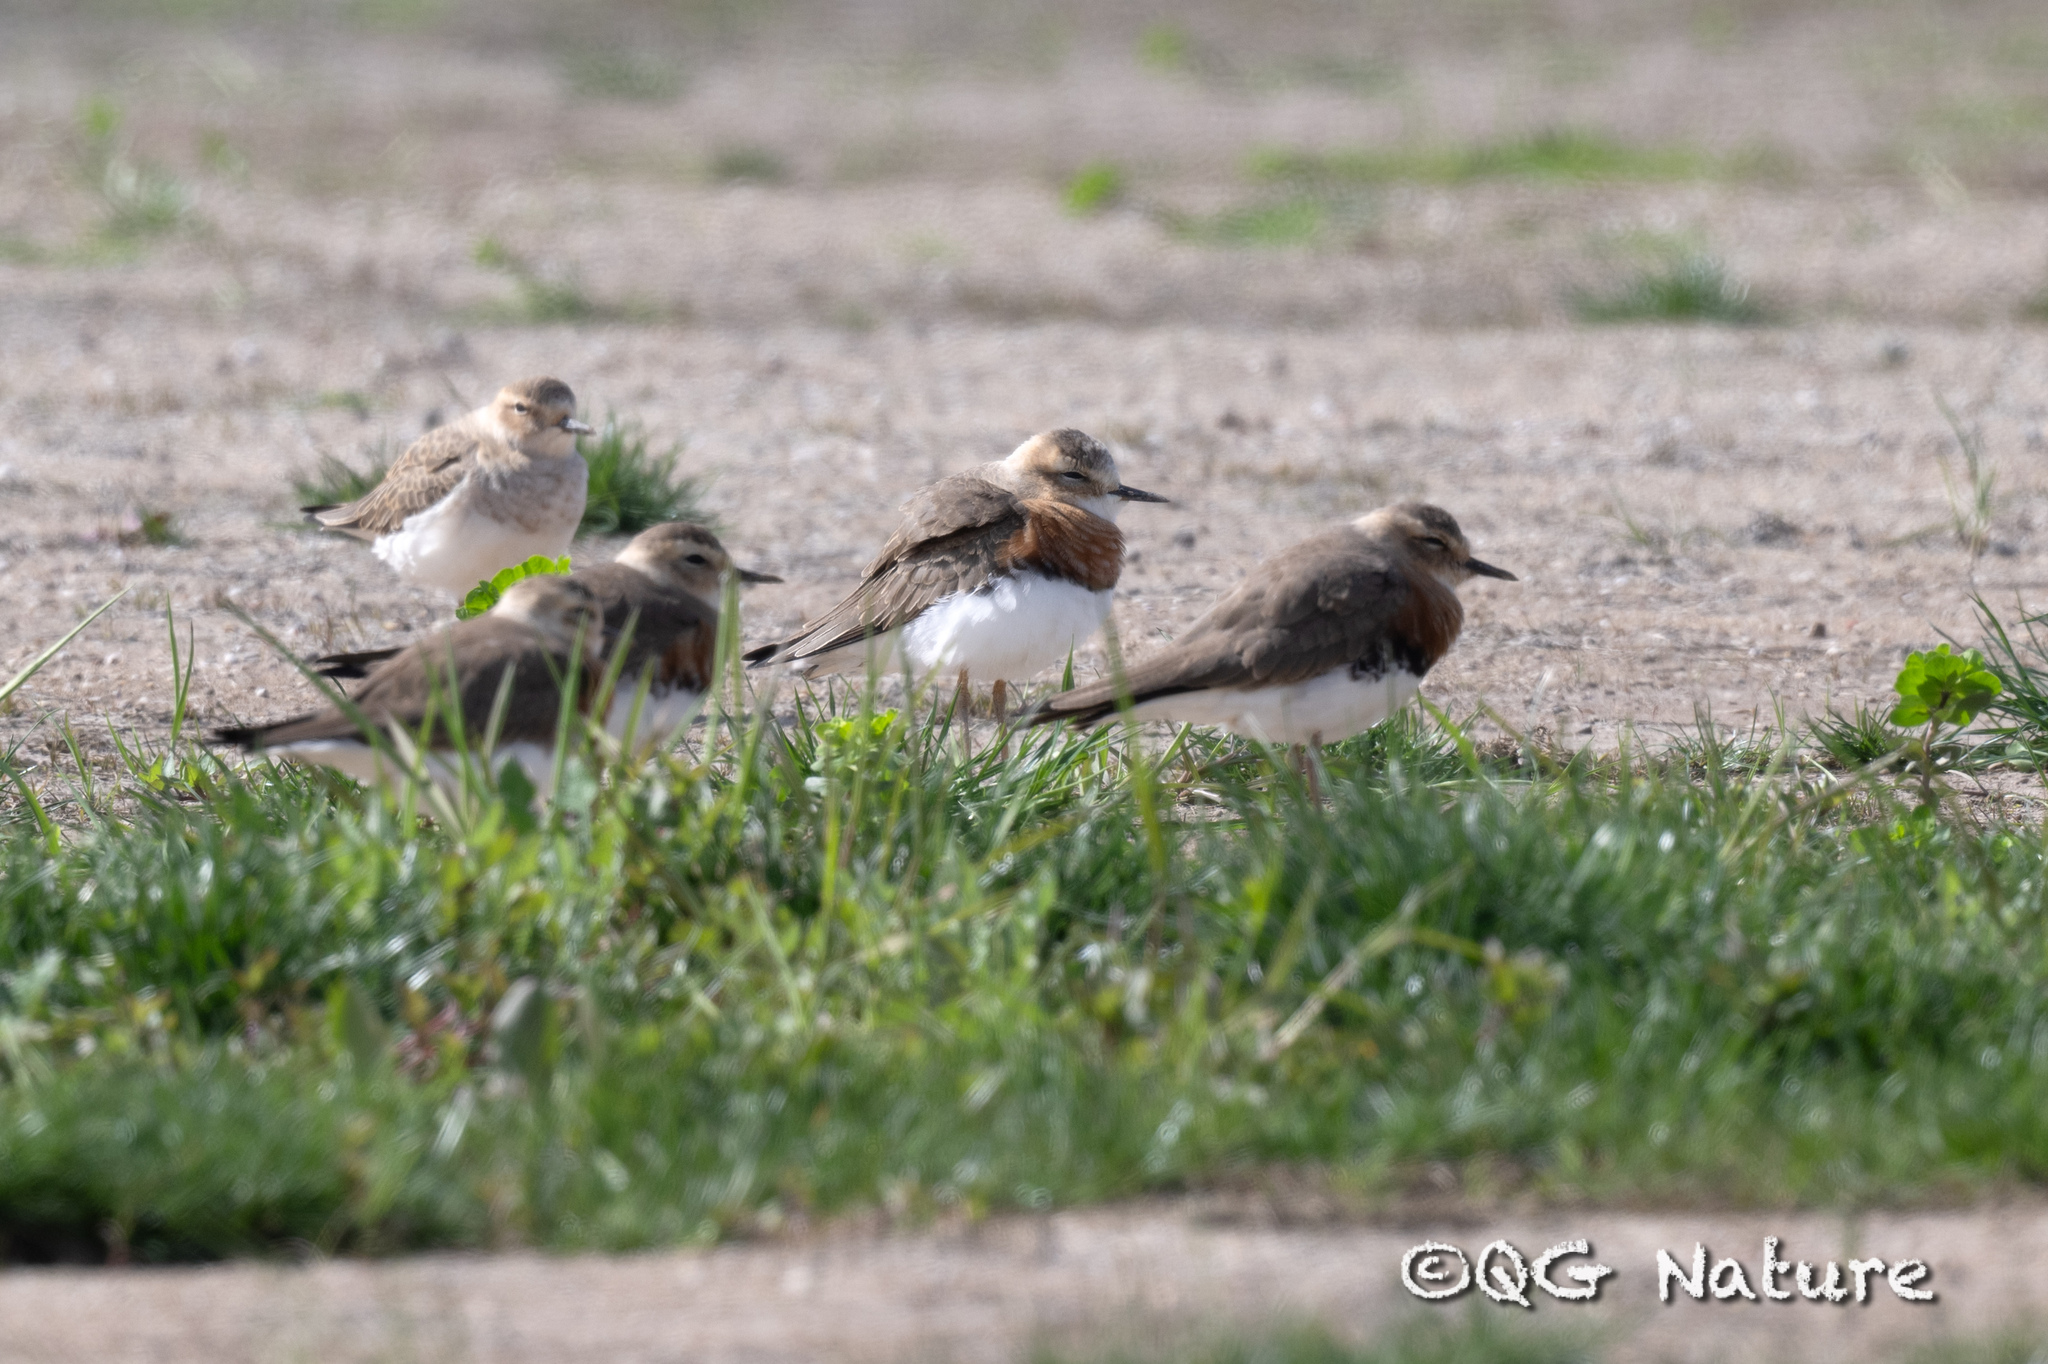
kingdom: Animalia
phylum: Chordata
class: Aves
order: Charadriiformes
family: Charadriidae
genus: Charadrius
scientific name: Charadrius veredus
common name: Oriental plover
